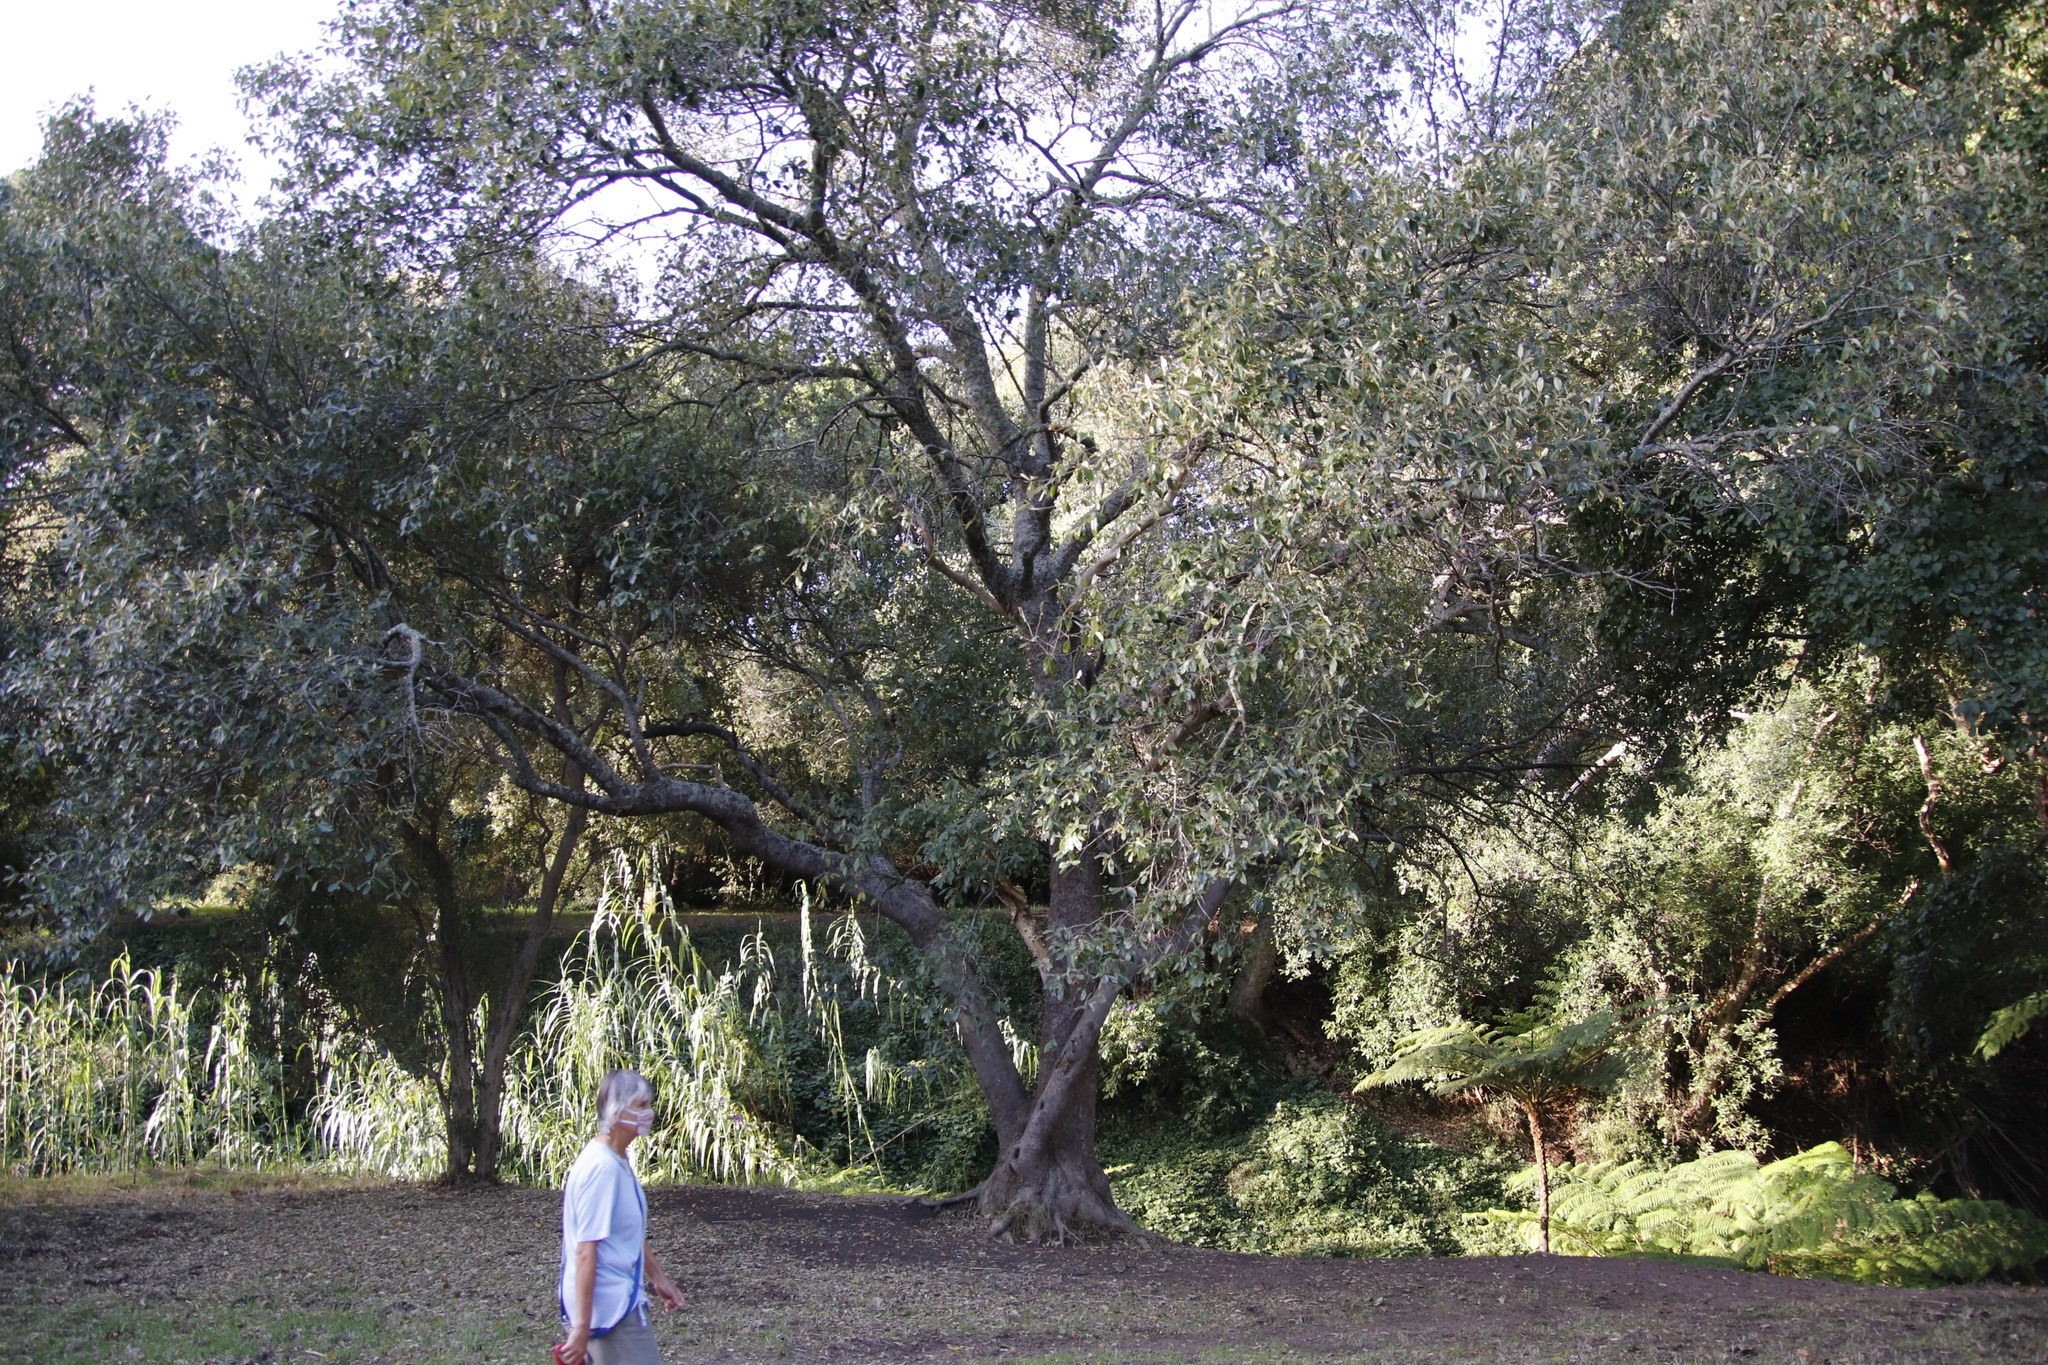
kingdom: Plantae
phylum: Tracheophyta
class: Magnoliopsida
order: Malpighiales
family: Achariaceae
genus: Kiggelaria
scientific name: Kiggelaria africana
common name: Wild peach
